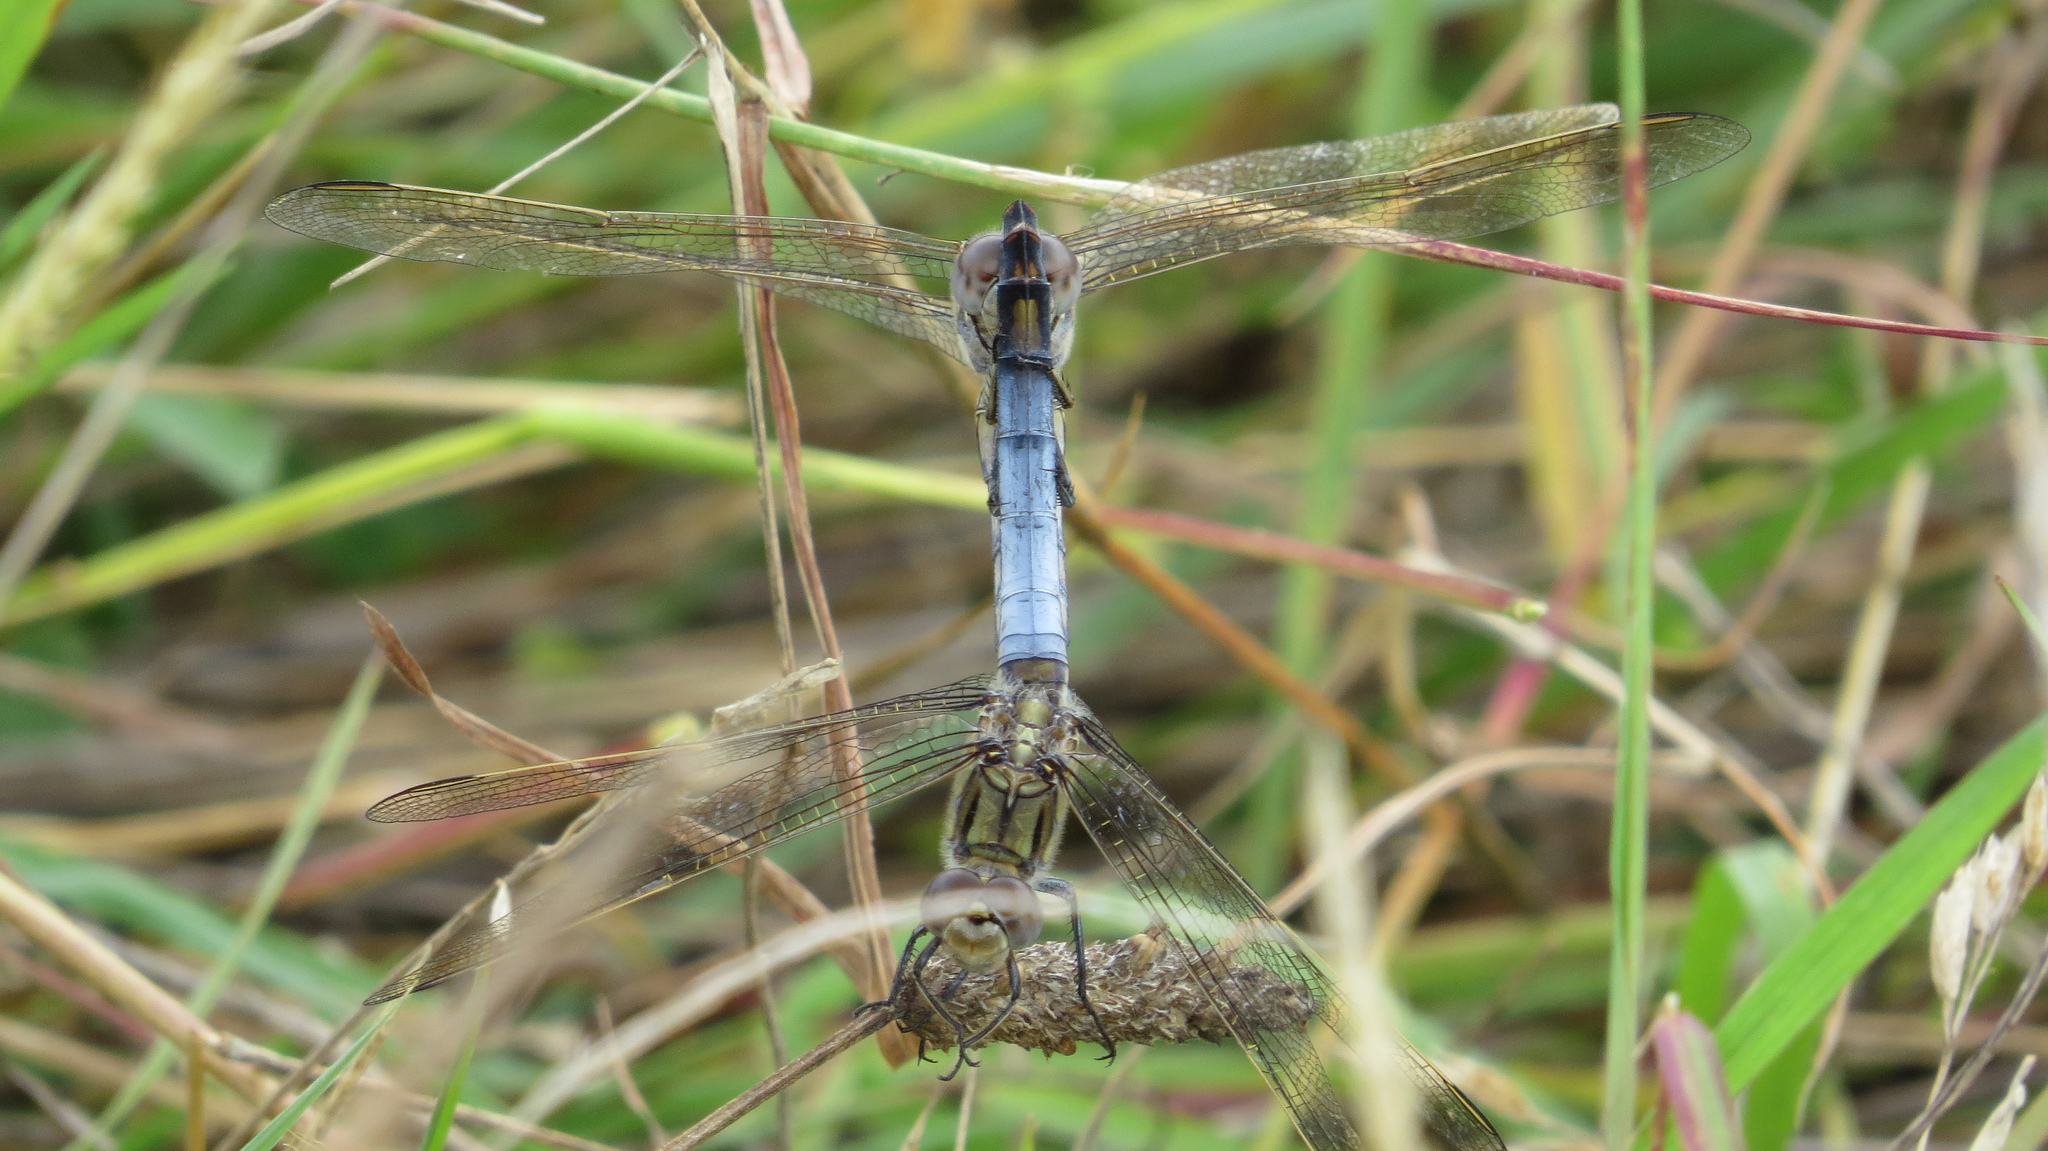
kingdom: Animalia
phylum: Arthropoda
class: Insecta
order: Odonata
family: Libellulidae
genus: Orthetrum
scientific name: Orthetrum caledonicum
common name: Blue skimmer
